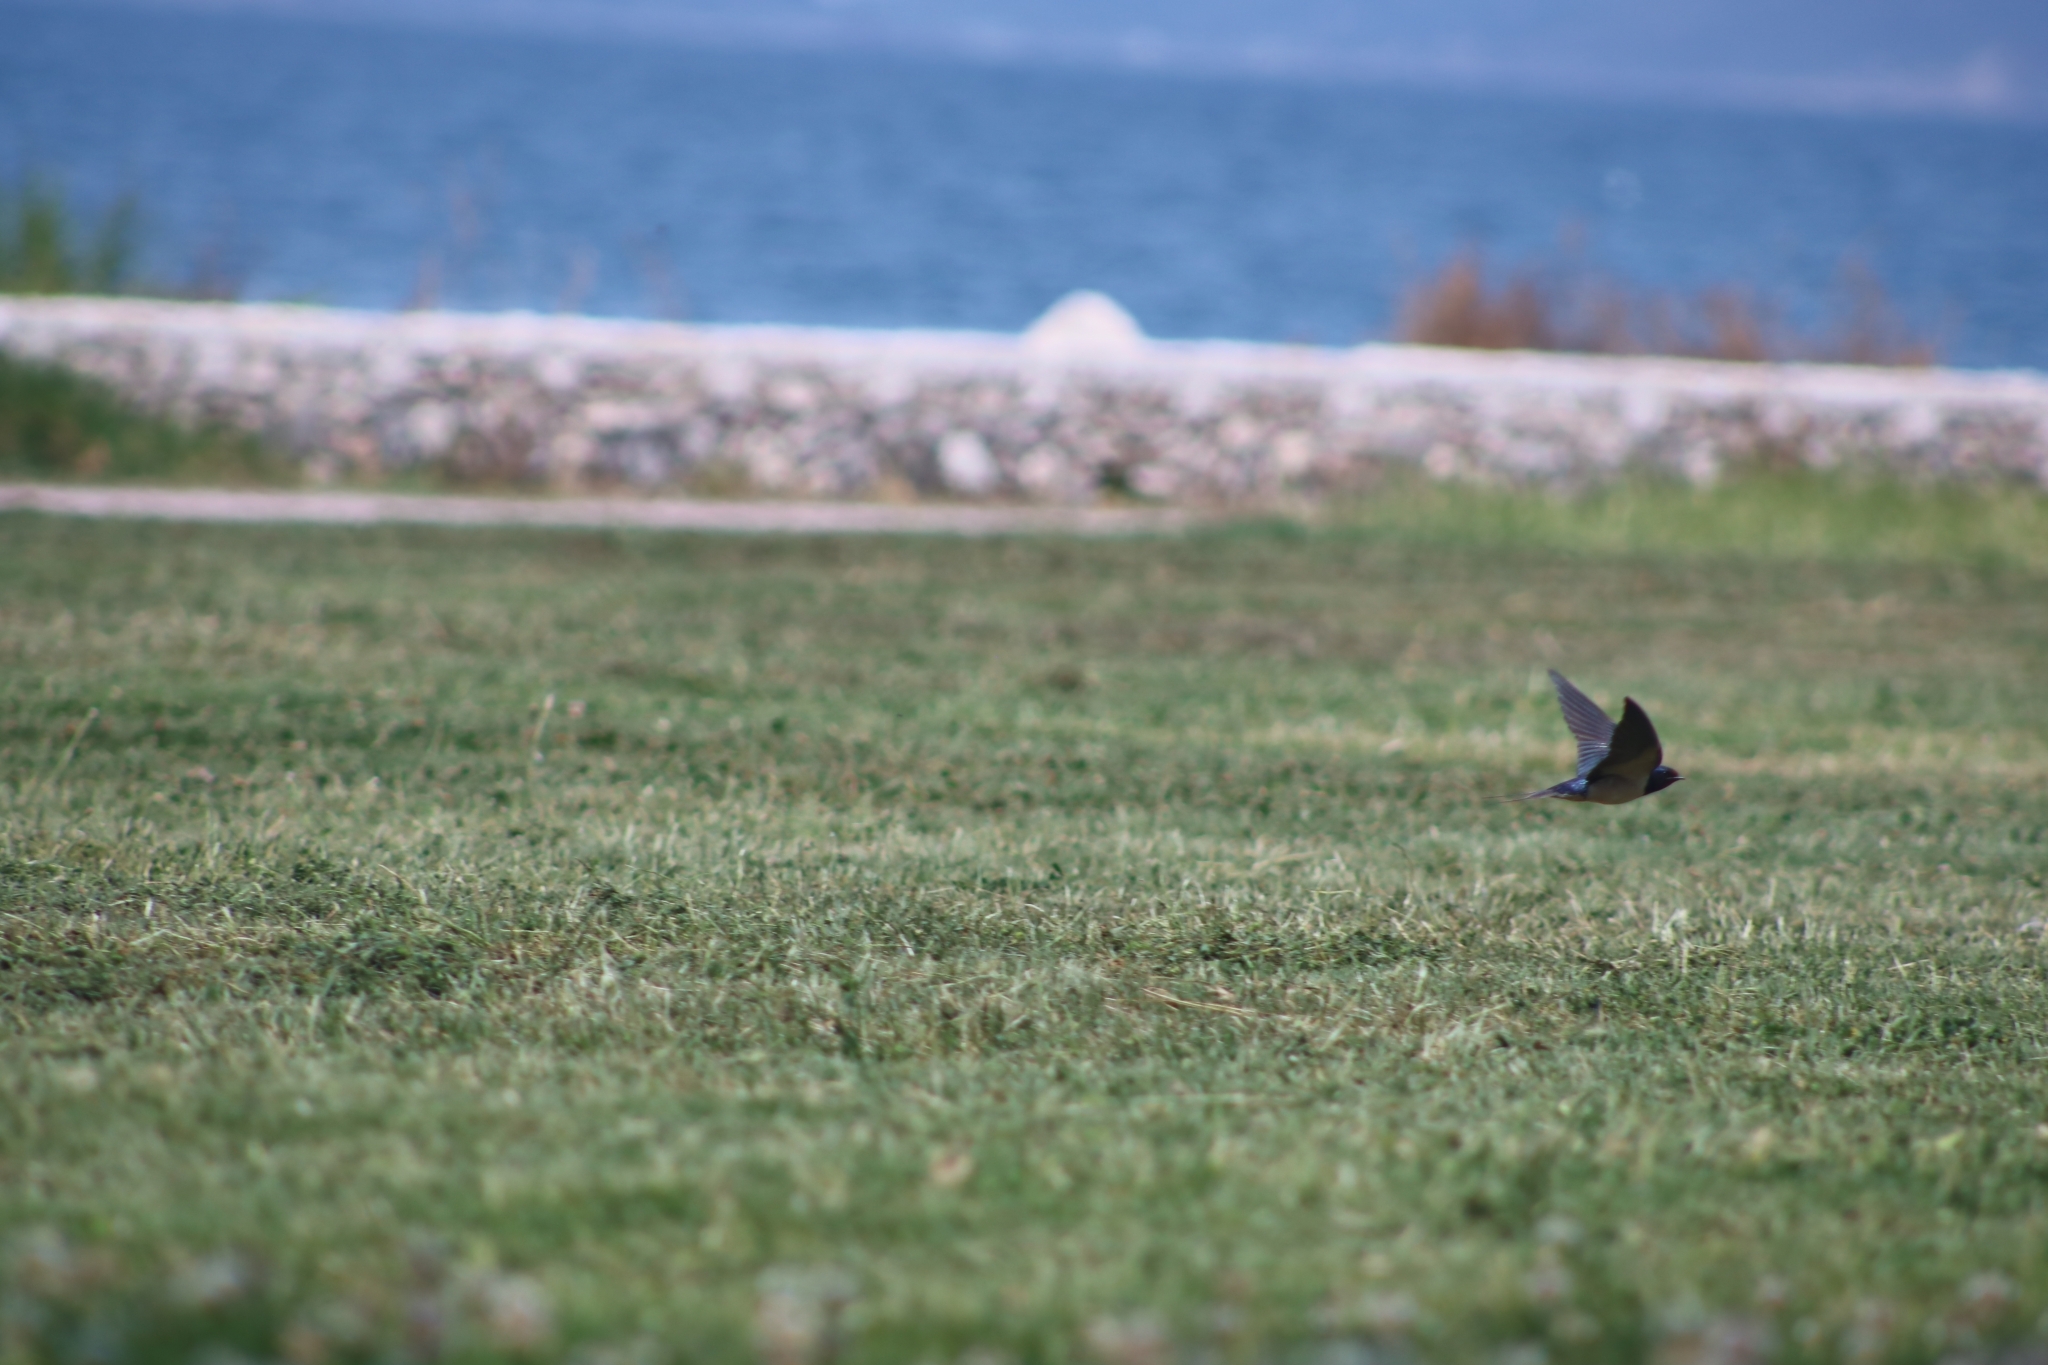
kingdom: Animalia
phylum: Chordata
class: Aves
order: Passeriformes
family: Hirundinidae
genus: Hirundo
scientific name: Hirundo rustica
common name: Barn swallow
